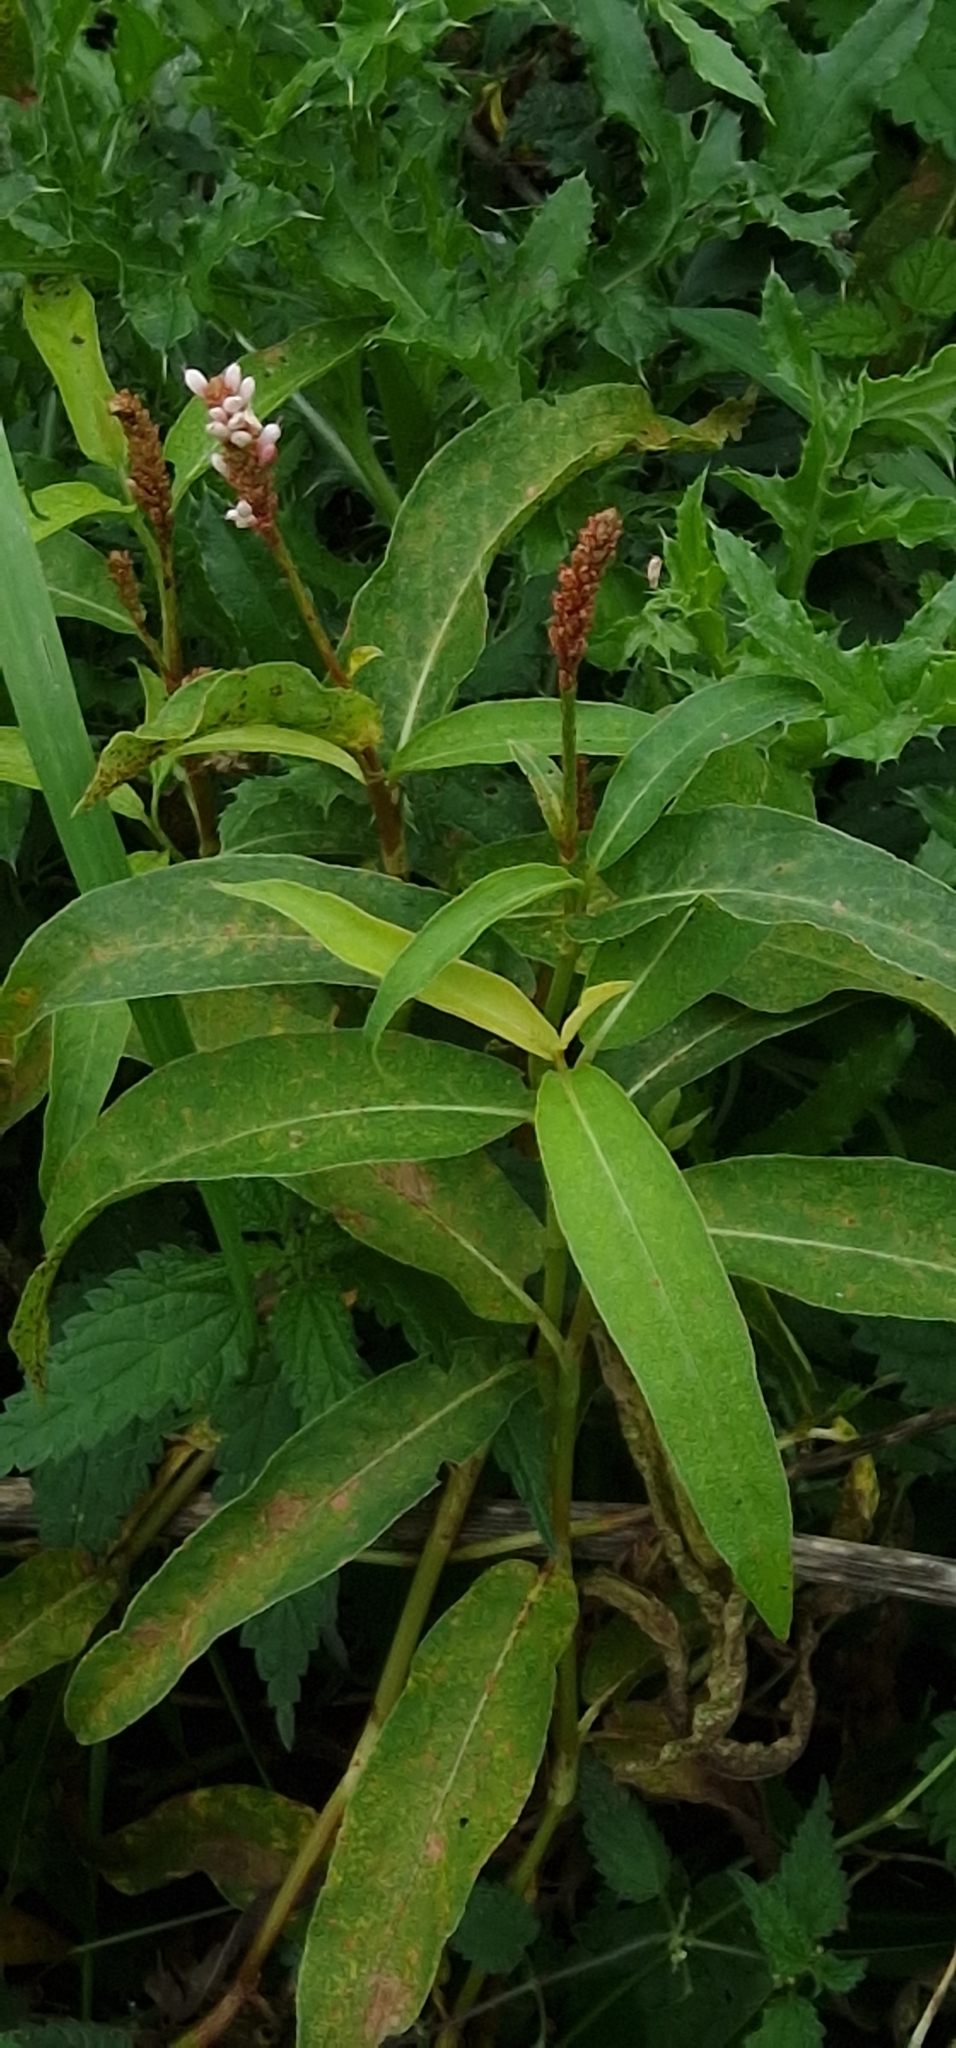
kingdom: Plantae
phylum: Tracheophyta
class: Magnoliopsida
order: Caryophyllales
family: Polygonaceae
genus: Persicaria
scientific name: Persicaria amphibia
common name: Amphibious bistort
